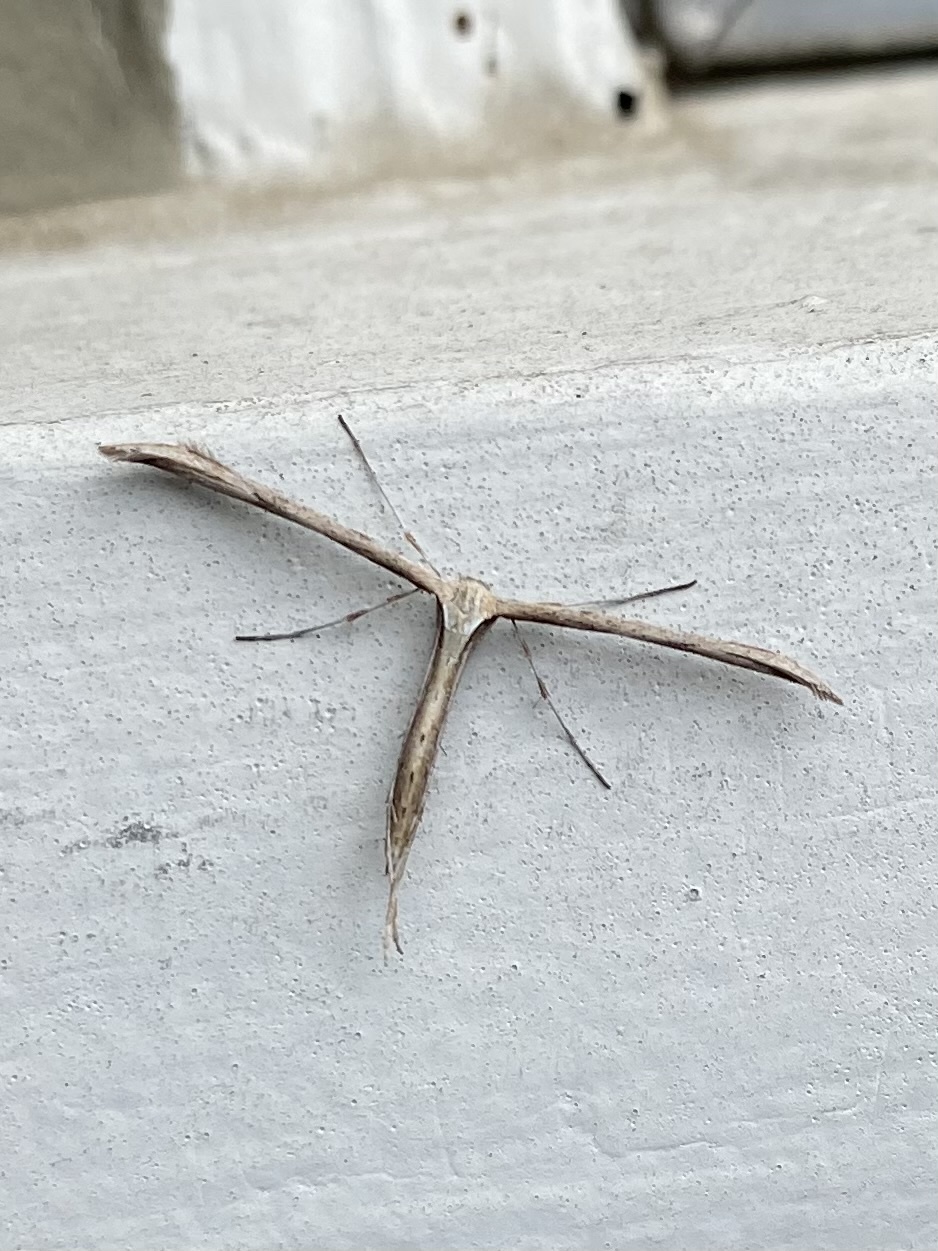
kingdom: Animalia
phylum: Arthropoda
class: Insecta
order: Lepidoptera
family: Pterophoridae
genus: Emmelina
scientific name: Emmelina monodactyla
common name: Common plume
